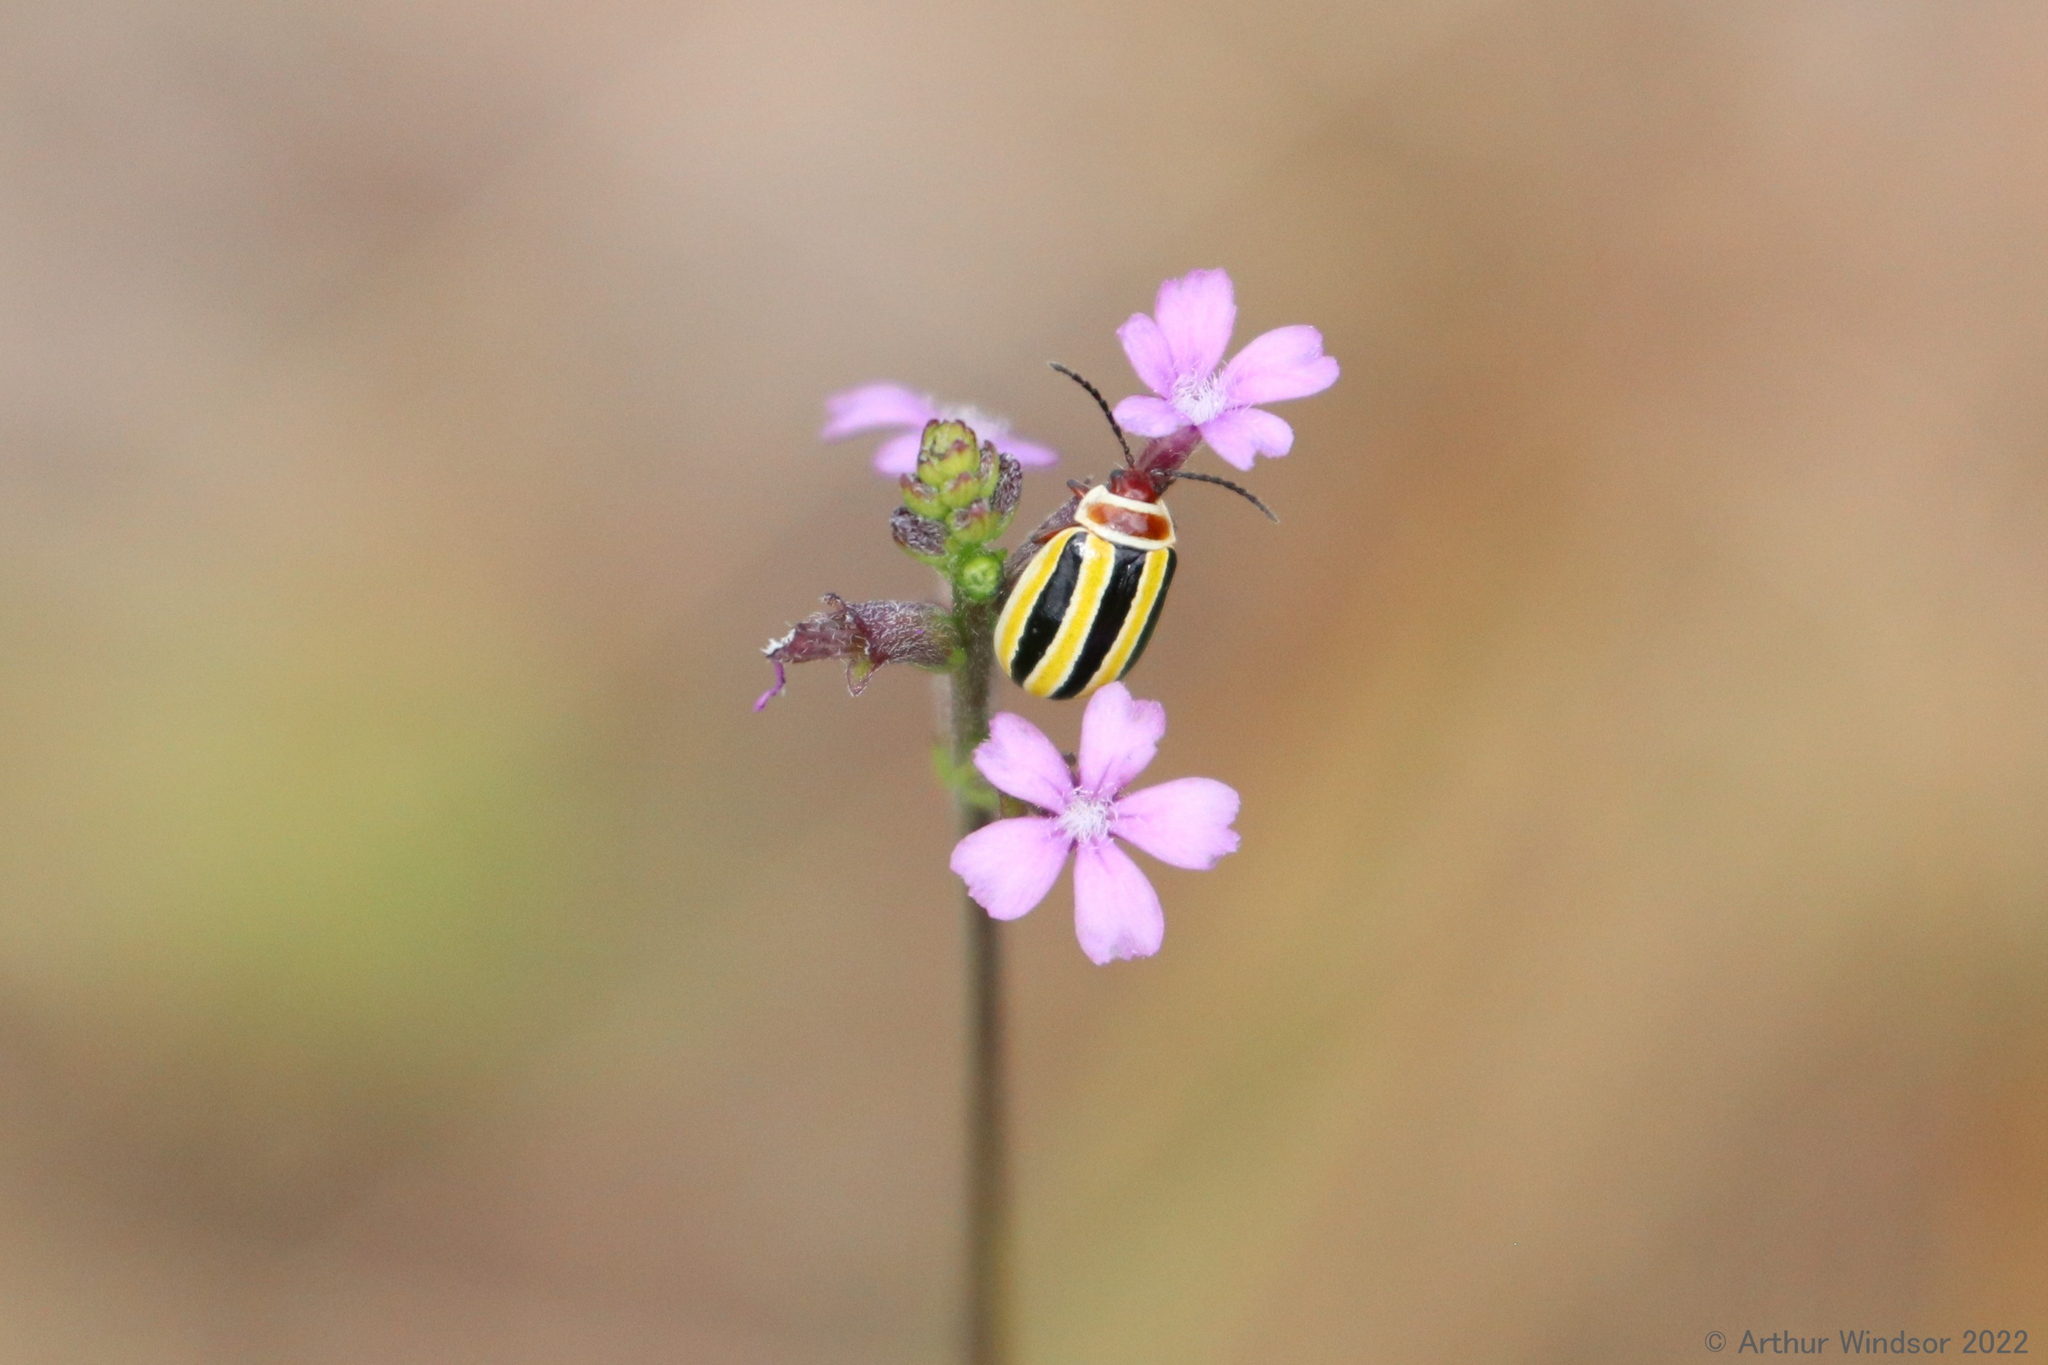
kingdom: Animalia
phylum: Arthropoda
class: Insecta
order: Coleoptera
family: Chrysomelidae
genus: Kuschelina
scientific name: Kuschelina floridana
